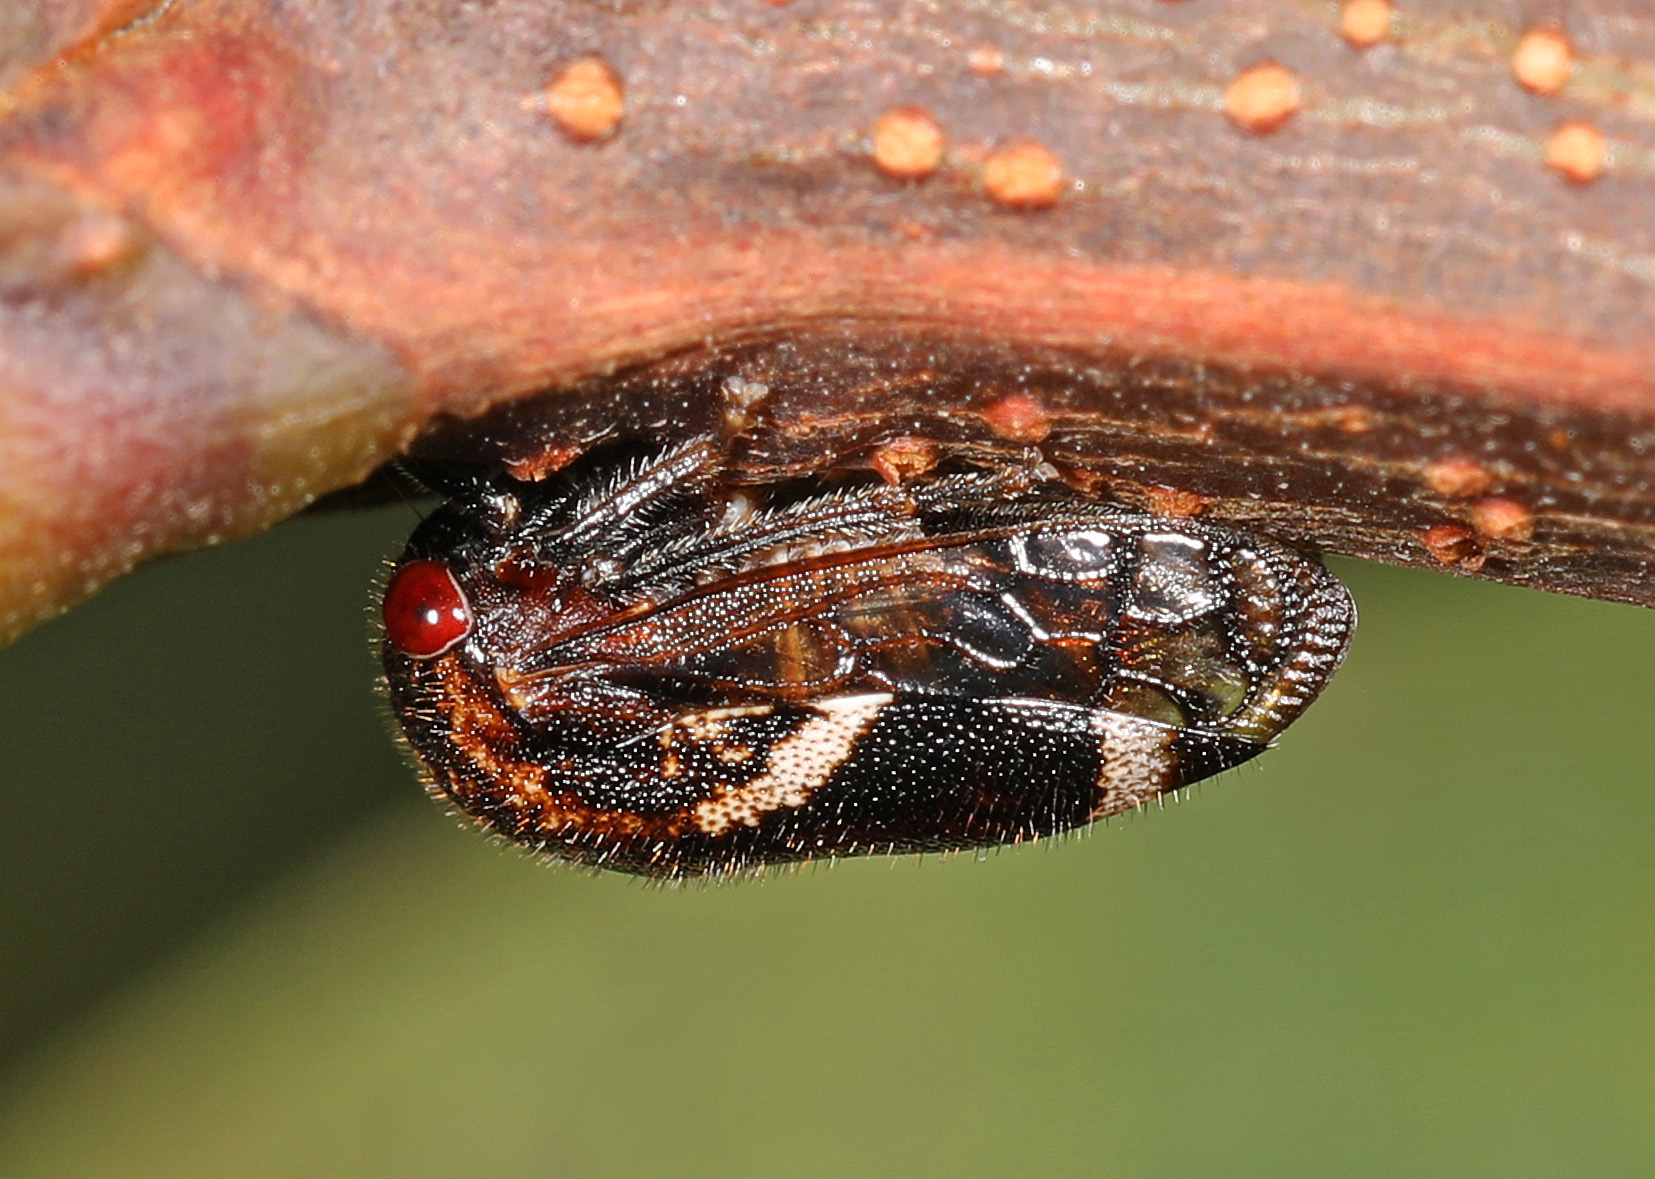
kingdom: Animalia
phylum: Arthropoda
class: Insecta
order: Hemiptera
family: Membracidae
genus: Vanduzea
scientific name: Vanduzea arquata
